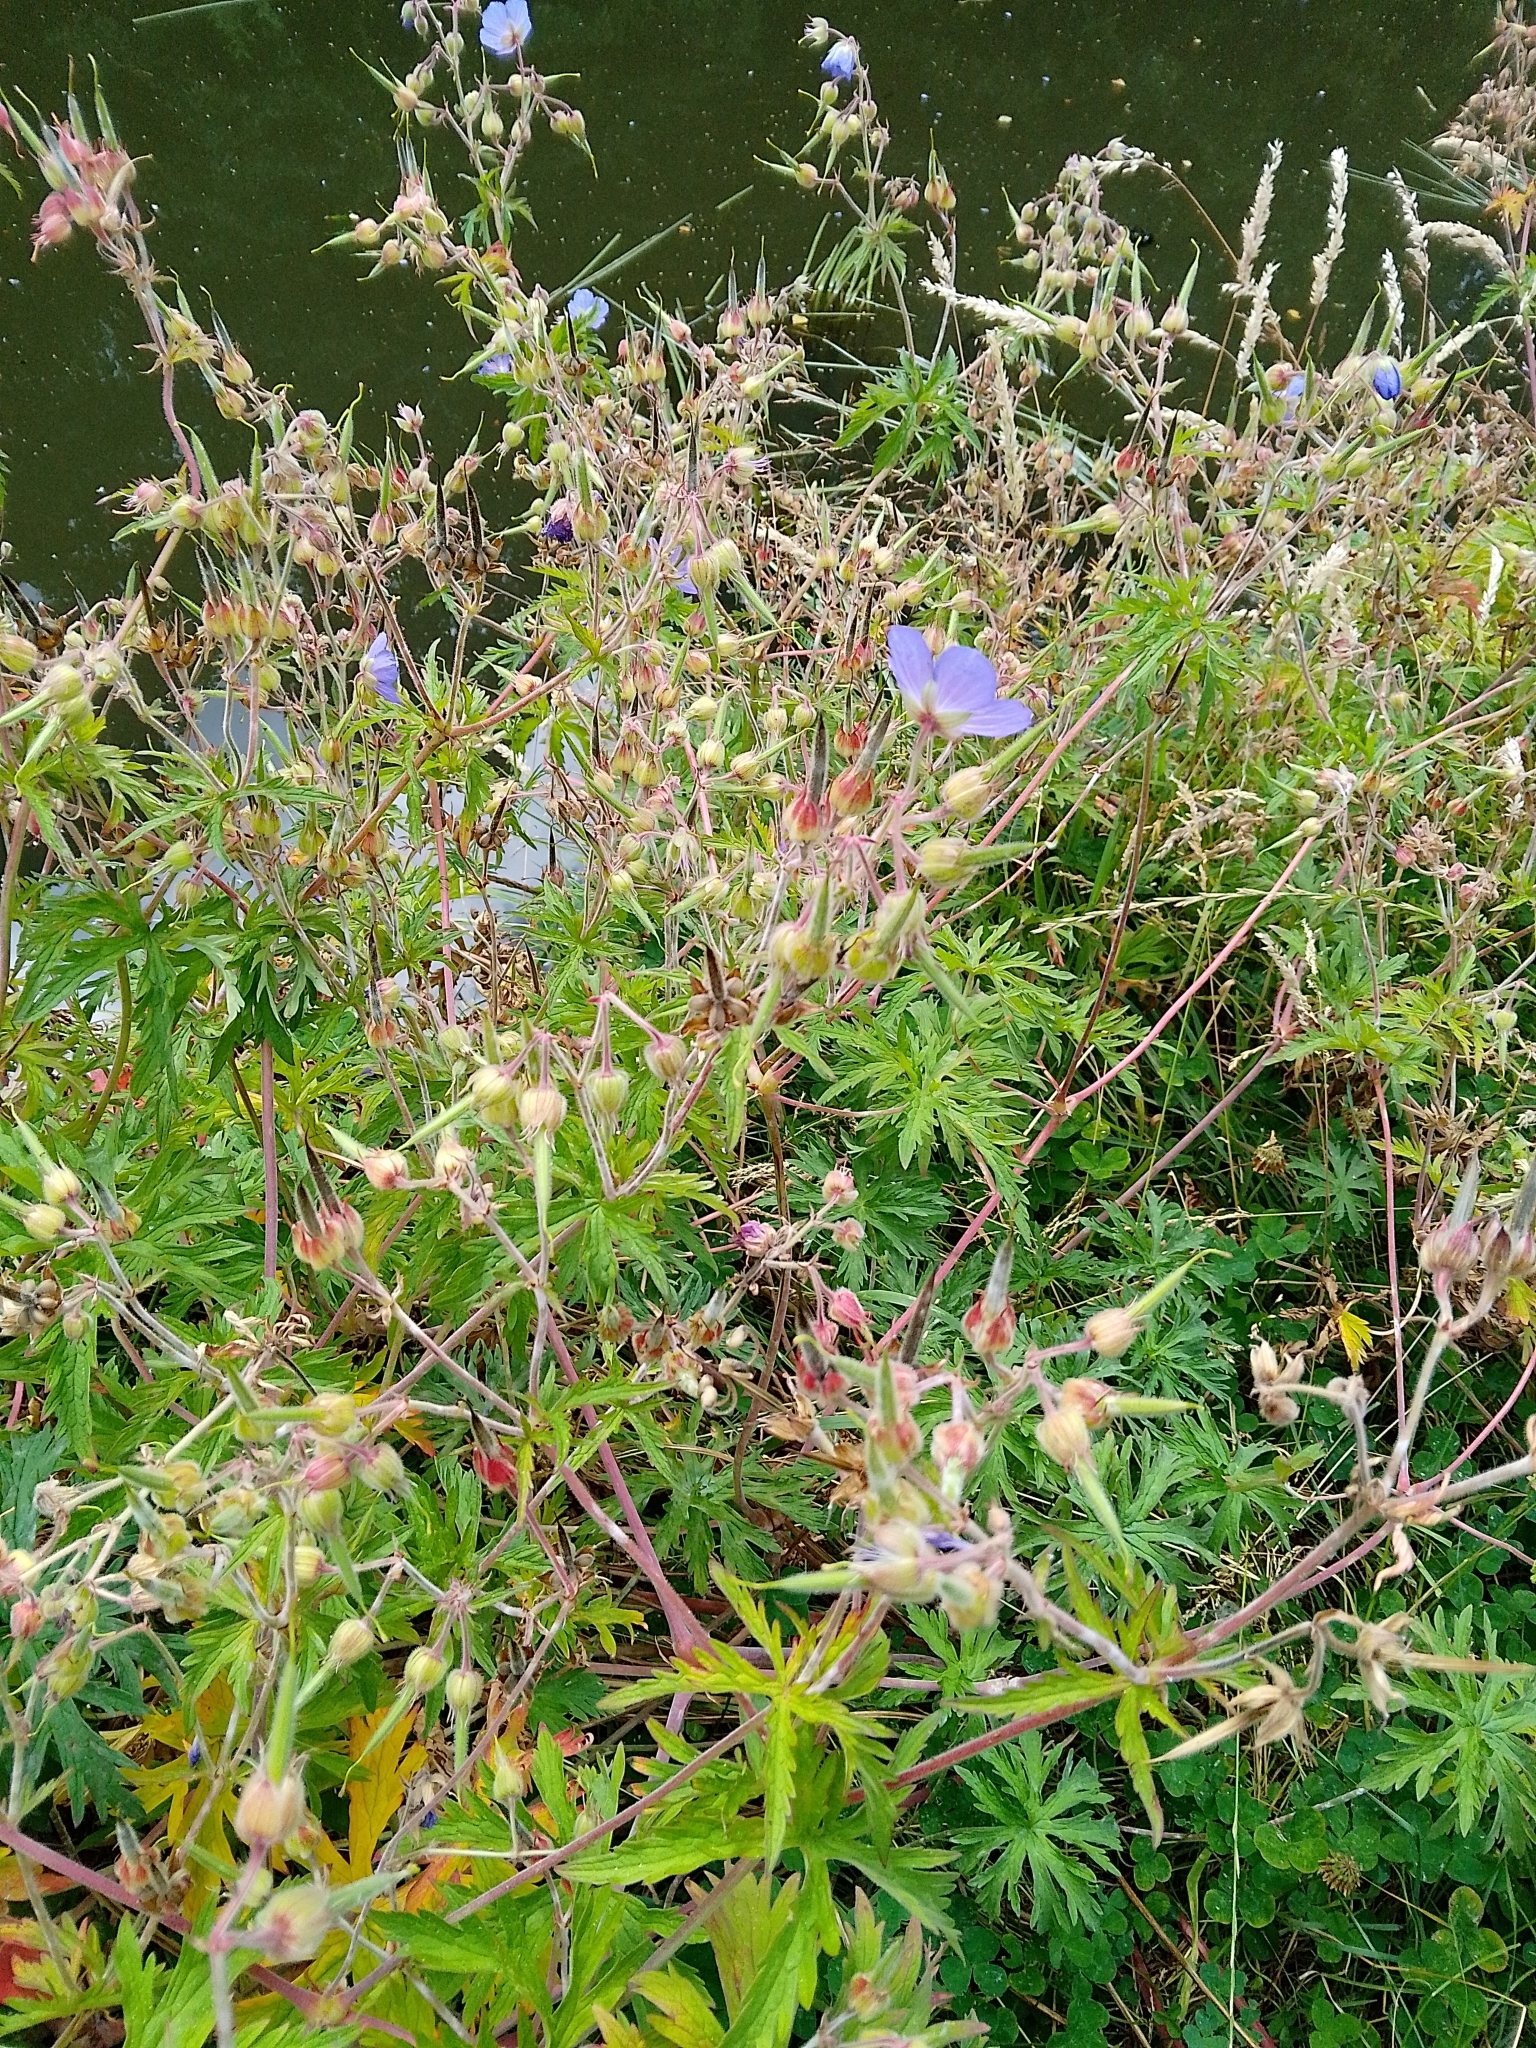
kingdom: Plantae
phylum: Tracheophyta
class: Magnoliopsida
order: Geraniales
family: Geraniaceae
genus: Geranium
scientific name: Geranium pratense
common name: Meadow crane's-bill
